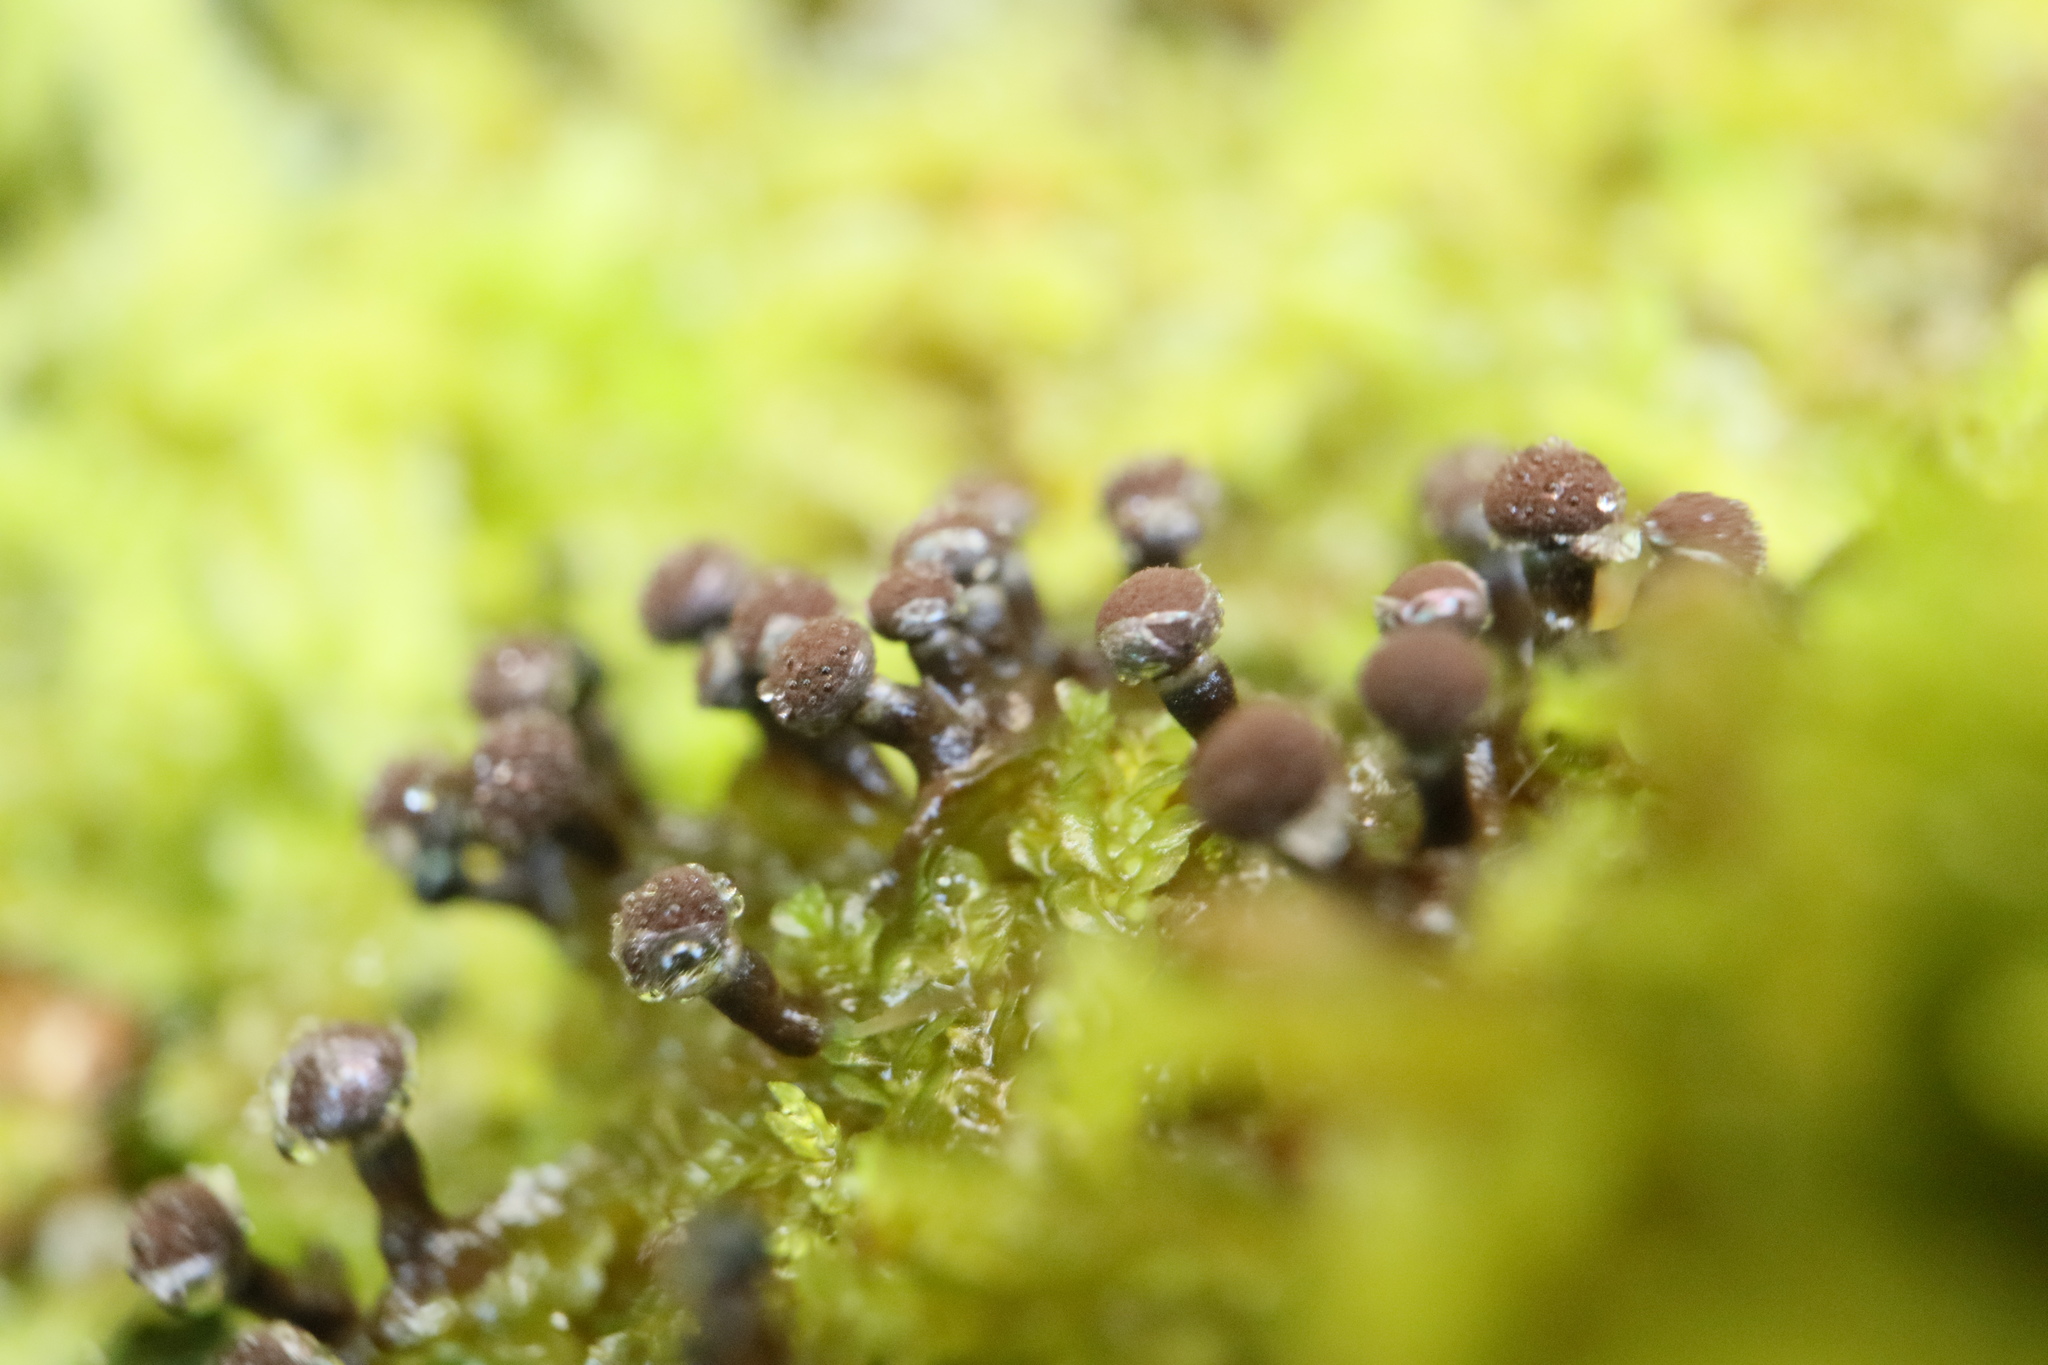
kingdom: Protozoa
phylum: Mycetozoa
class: Myxomycetes
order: Physarales
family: Elaeomyxaceae
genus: Elaeomyxa
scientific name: Elaeomyxa cerifera
